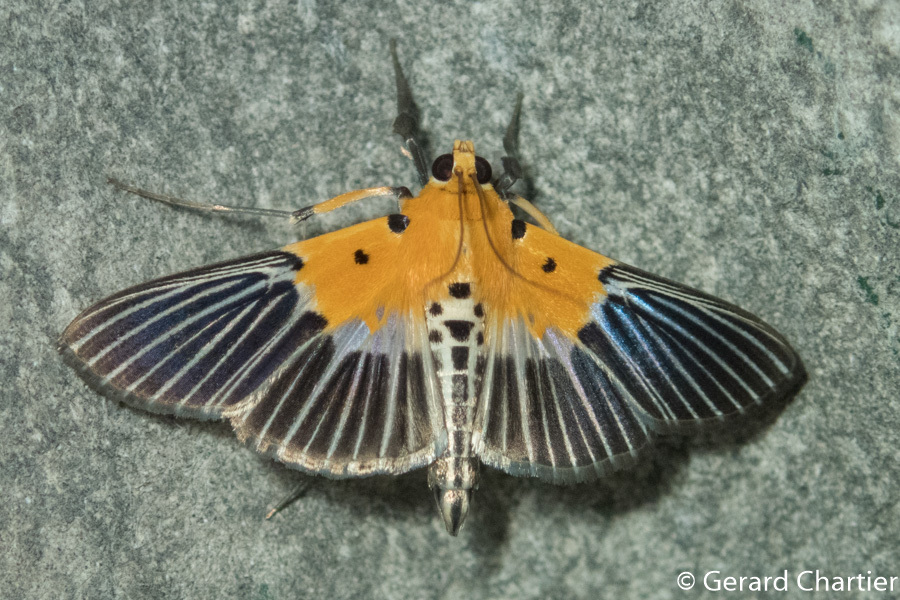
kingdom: Animalia
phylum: Arthropoda
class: Insecta
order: Lepidoptera
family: Crambidae
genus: Nevrina
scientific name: Nevrina procopia
